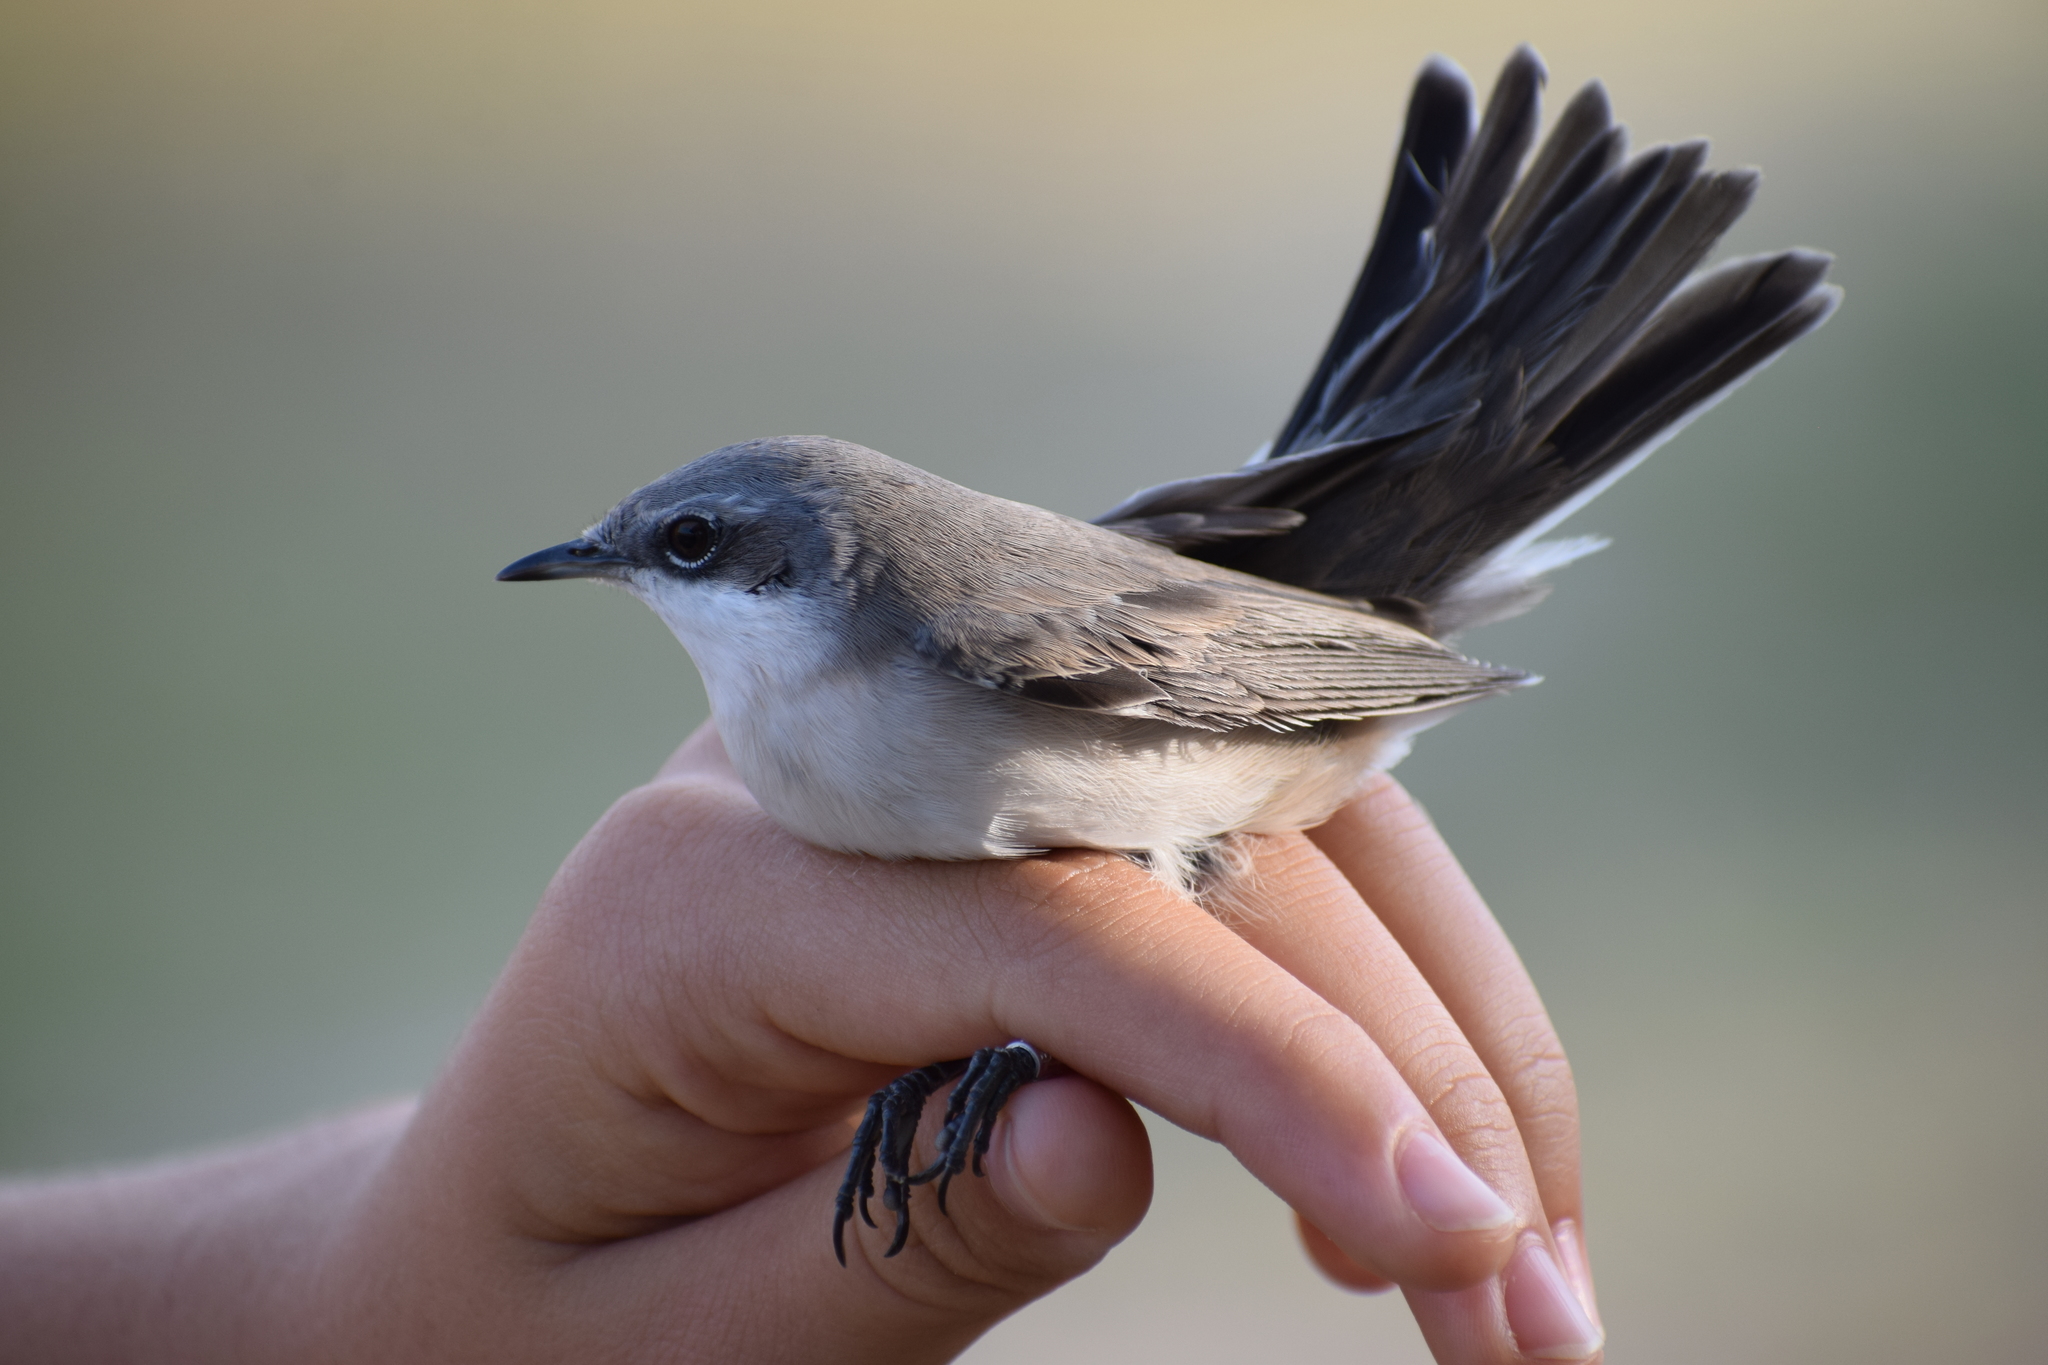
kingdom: Animalia
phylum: Chordata
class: Aves
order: Passeriformes
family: Sylviidae
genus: Sylvia
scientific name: Sylvia curruca
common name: Lesser whitethroat
